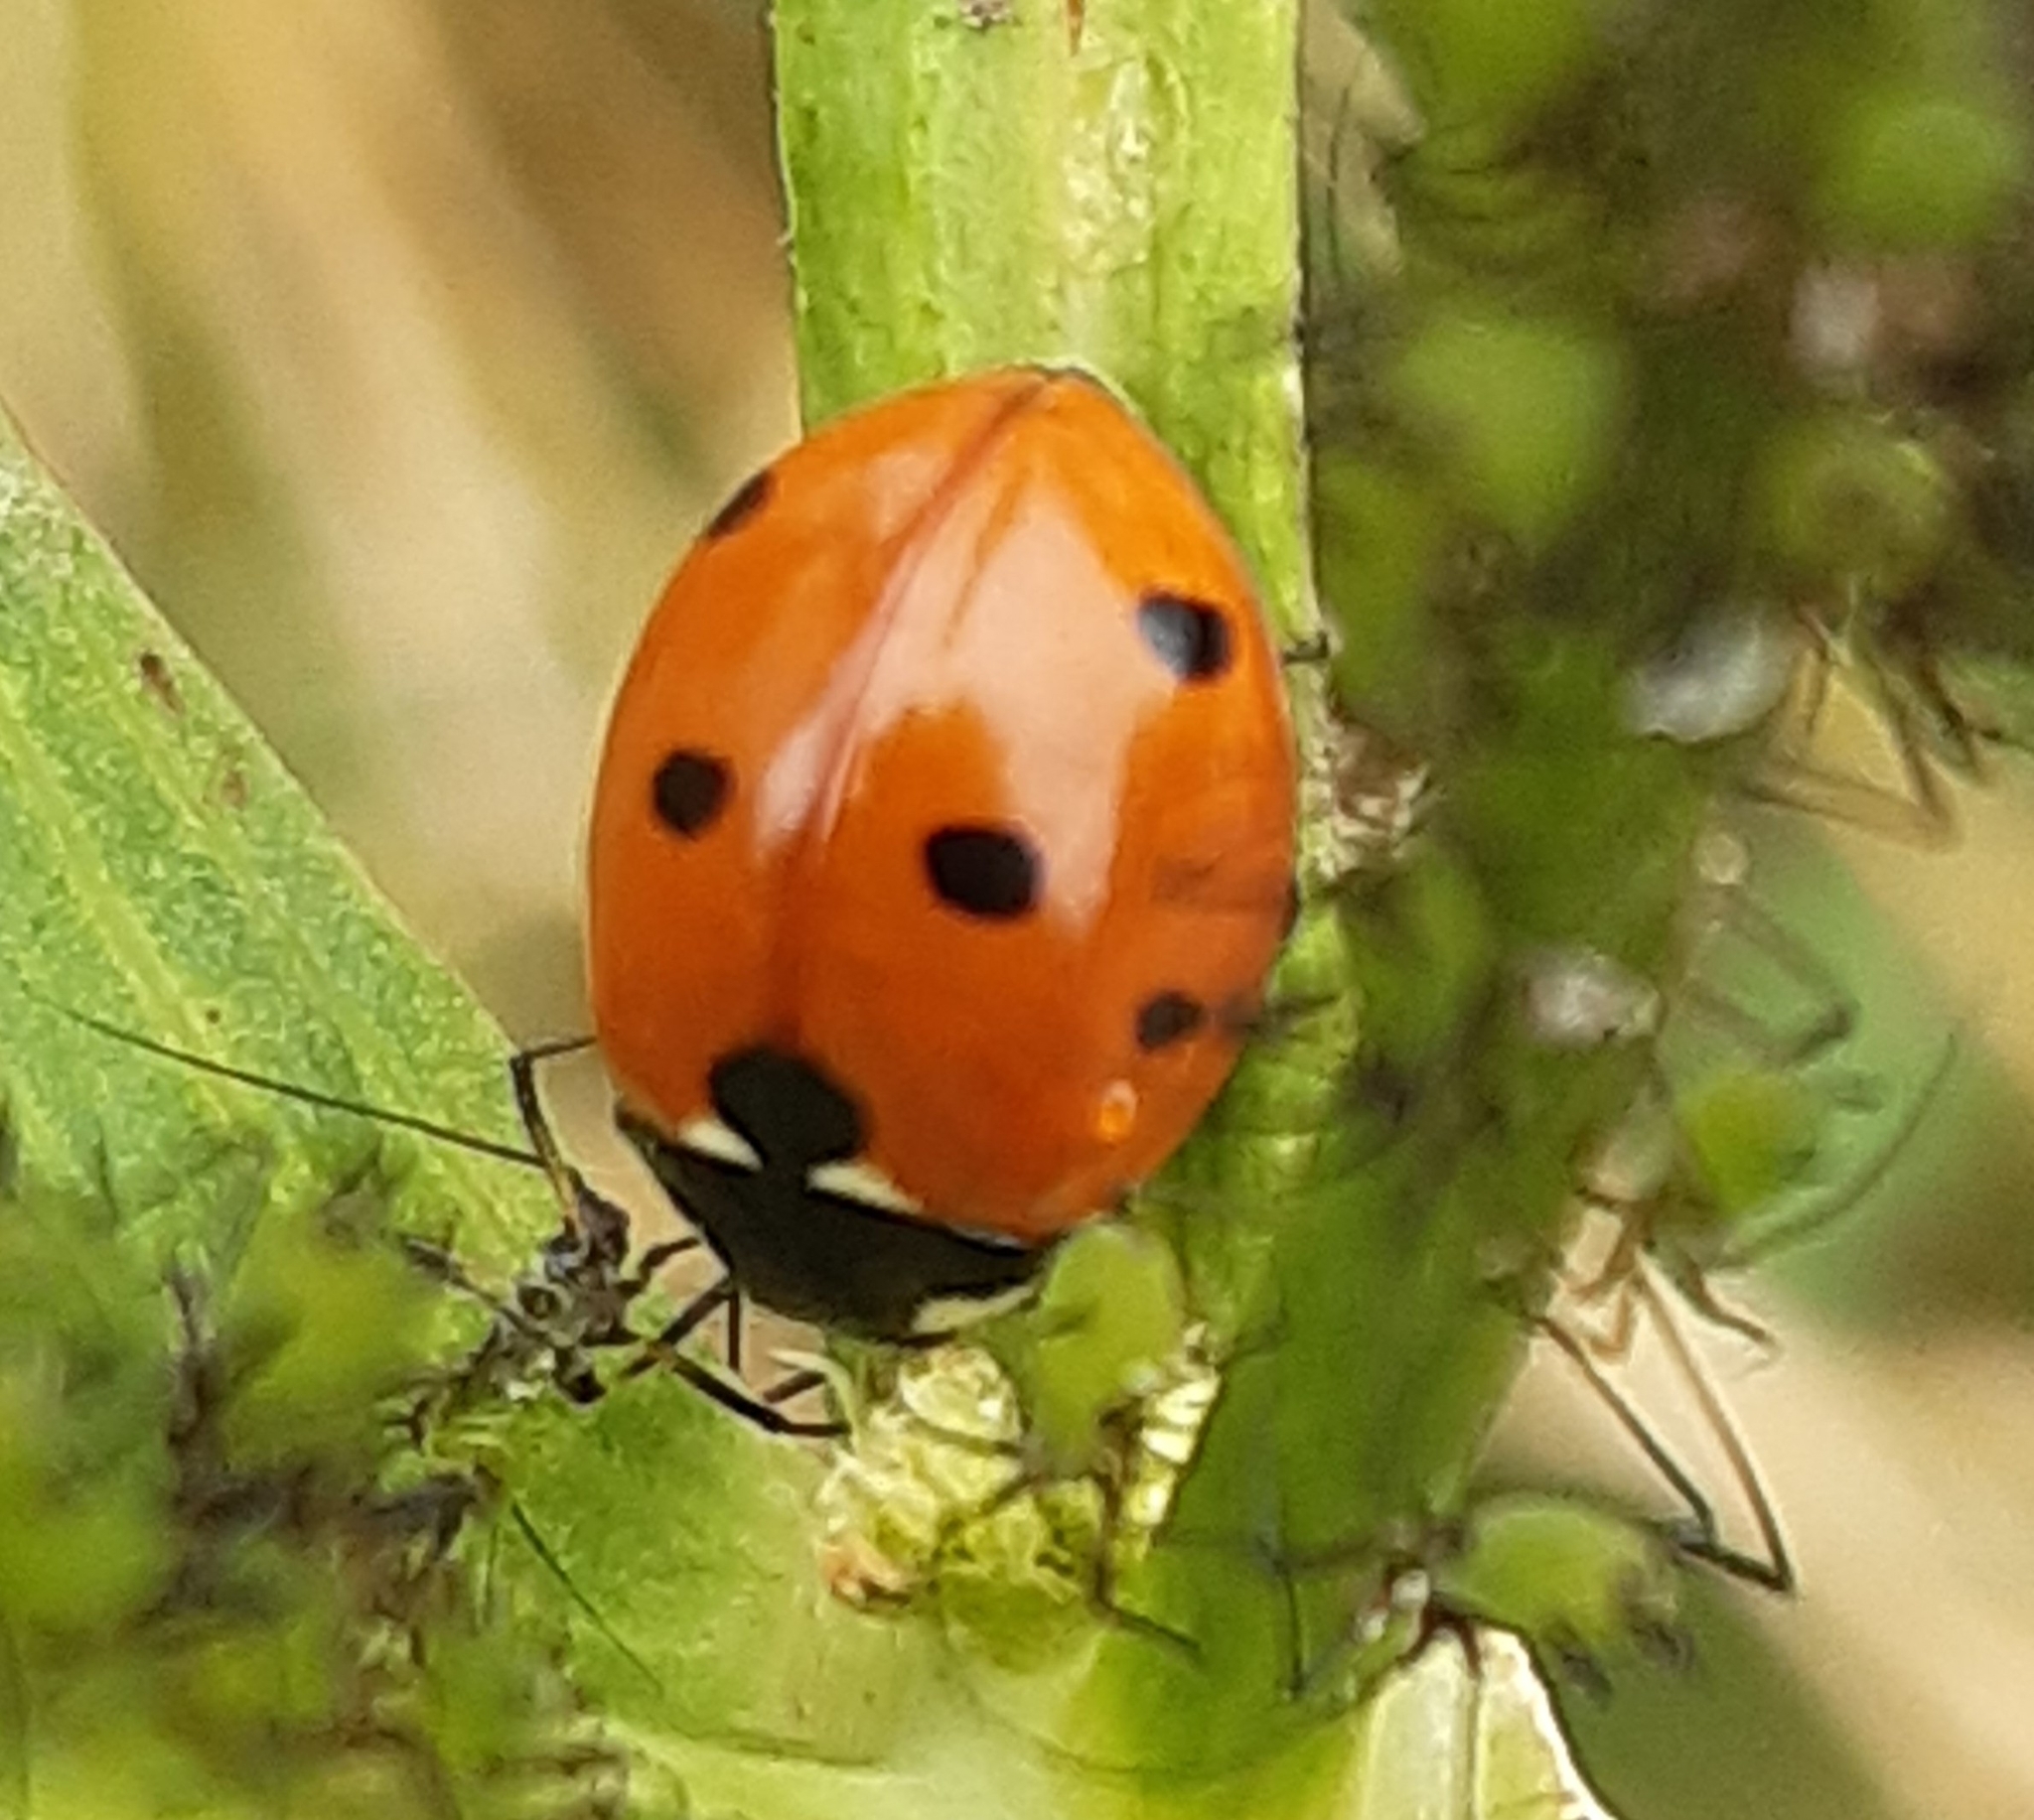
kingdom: Animalia
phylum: Arthropoda
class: Insecta
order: Coleoptera
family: Coccinellidae
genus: Coccinella
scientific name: Coccinella septempunctata
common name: Sevenspotted lady beetle
